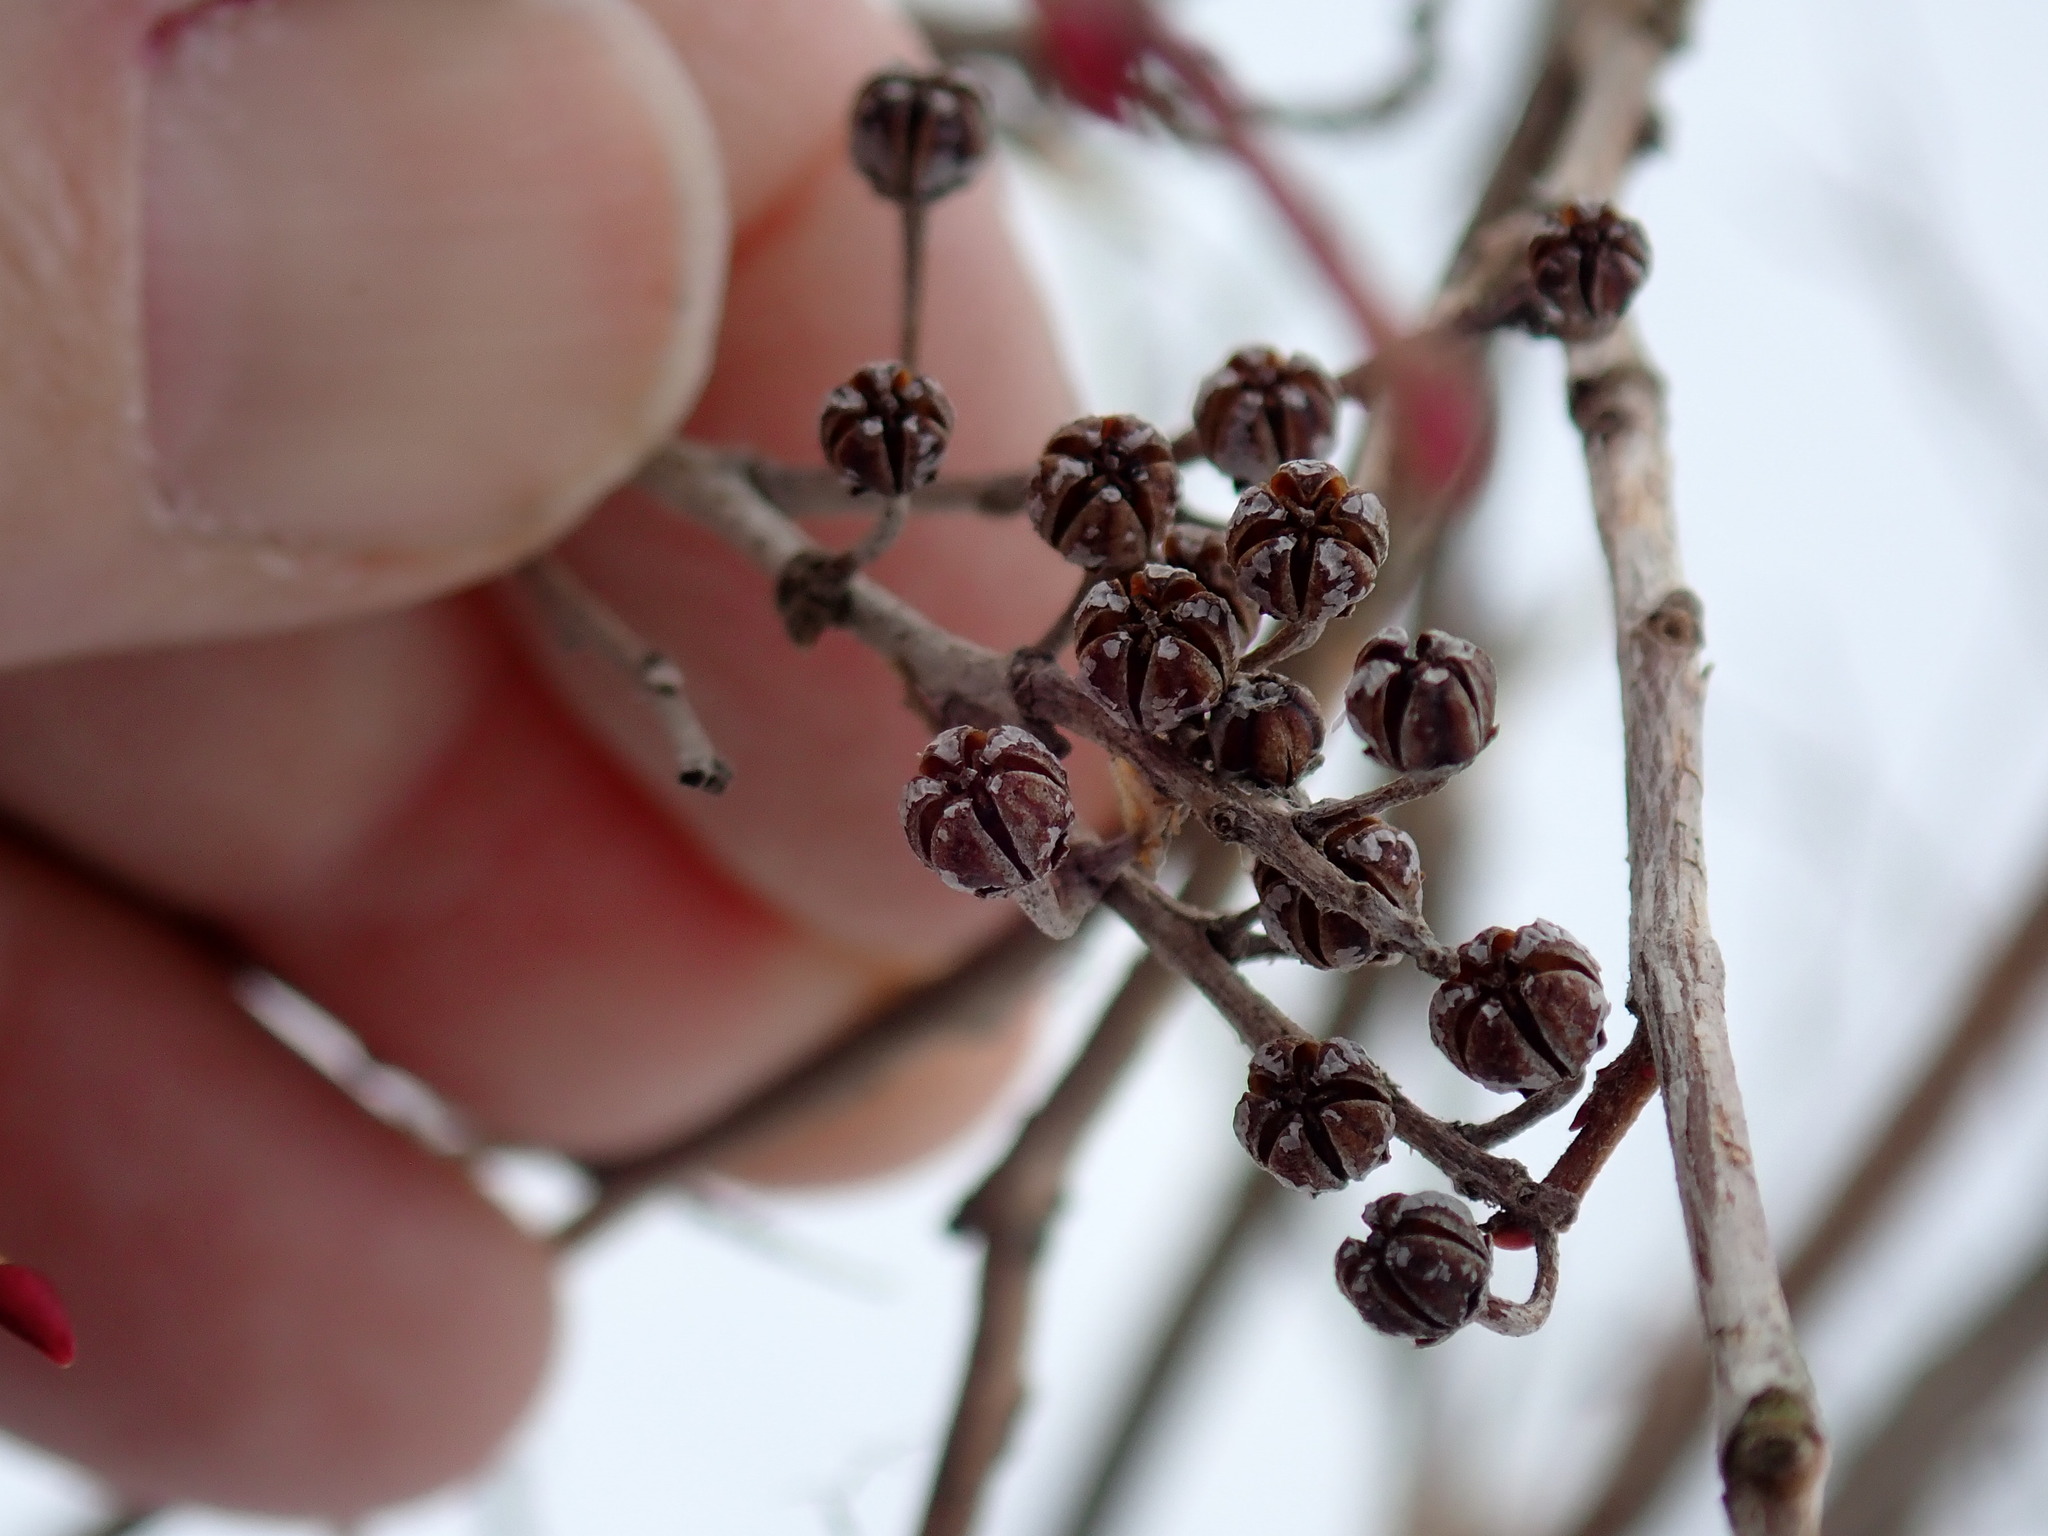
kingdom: Plantae
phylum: Tracheophyta
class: Magnoliopsida
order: Ericales
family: Ericaceae
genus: Lyonia
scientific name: Lyonia ligustrina
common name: Maleberry
